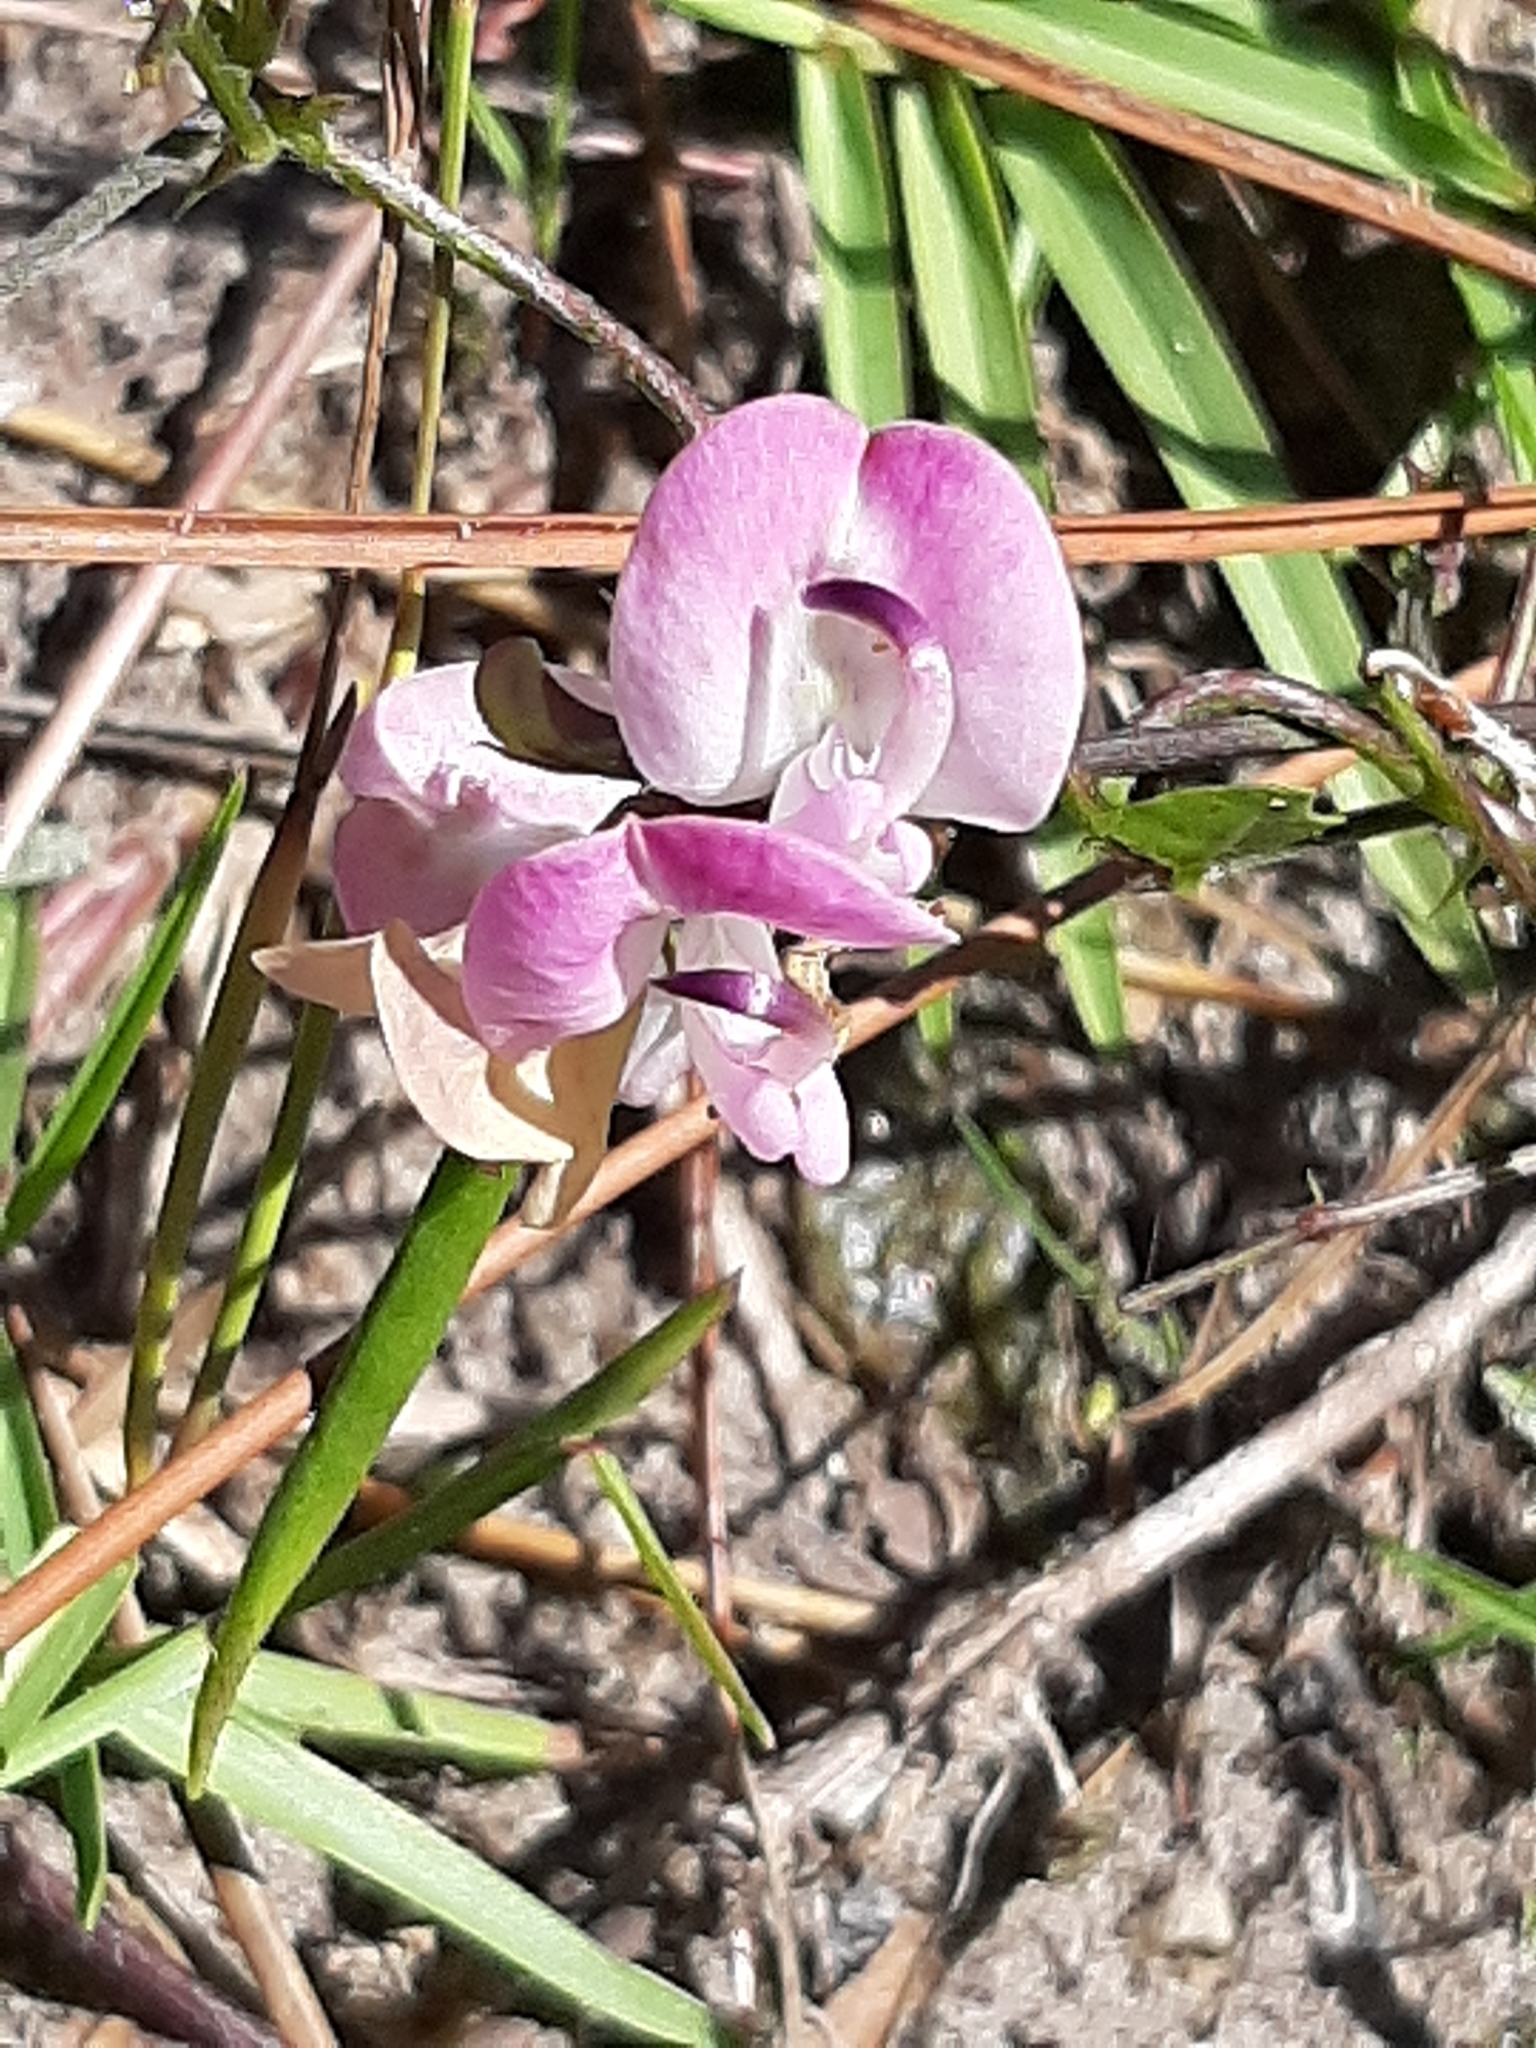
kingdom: Plantae
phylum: Tracheophyta
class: Magnoliopsida
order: Fabales
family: Fabaceae
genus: Strophostyles
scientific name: Strophostyles helvola
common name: Trailing wild bean
